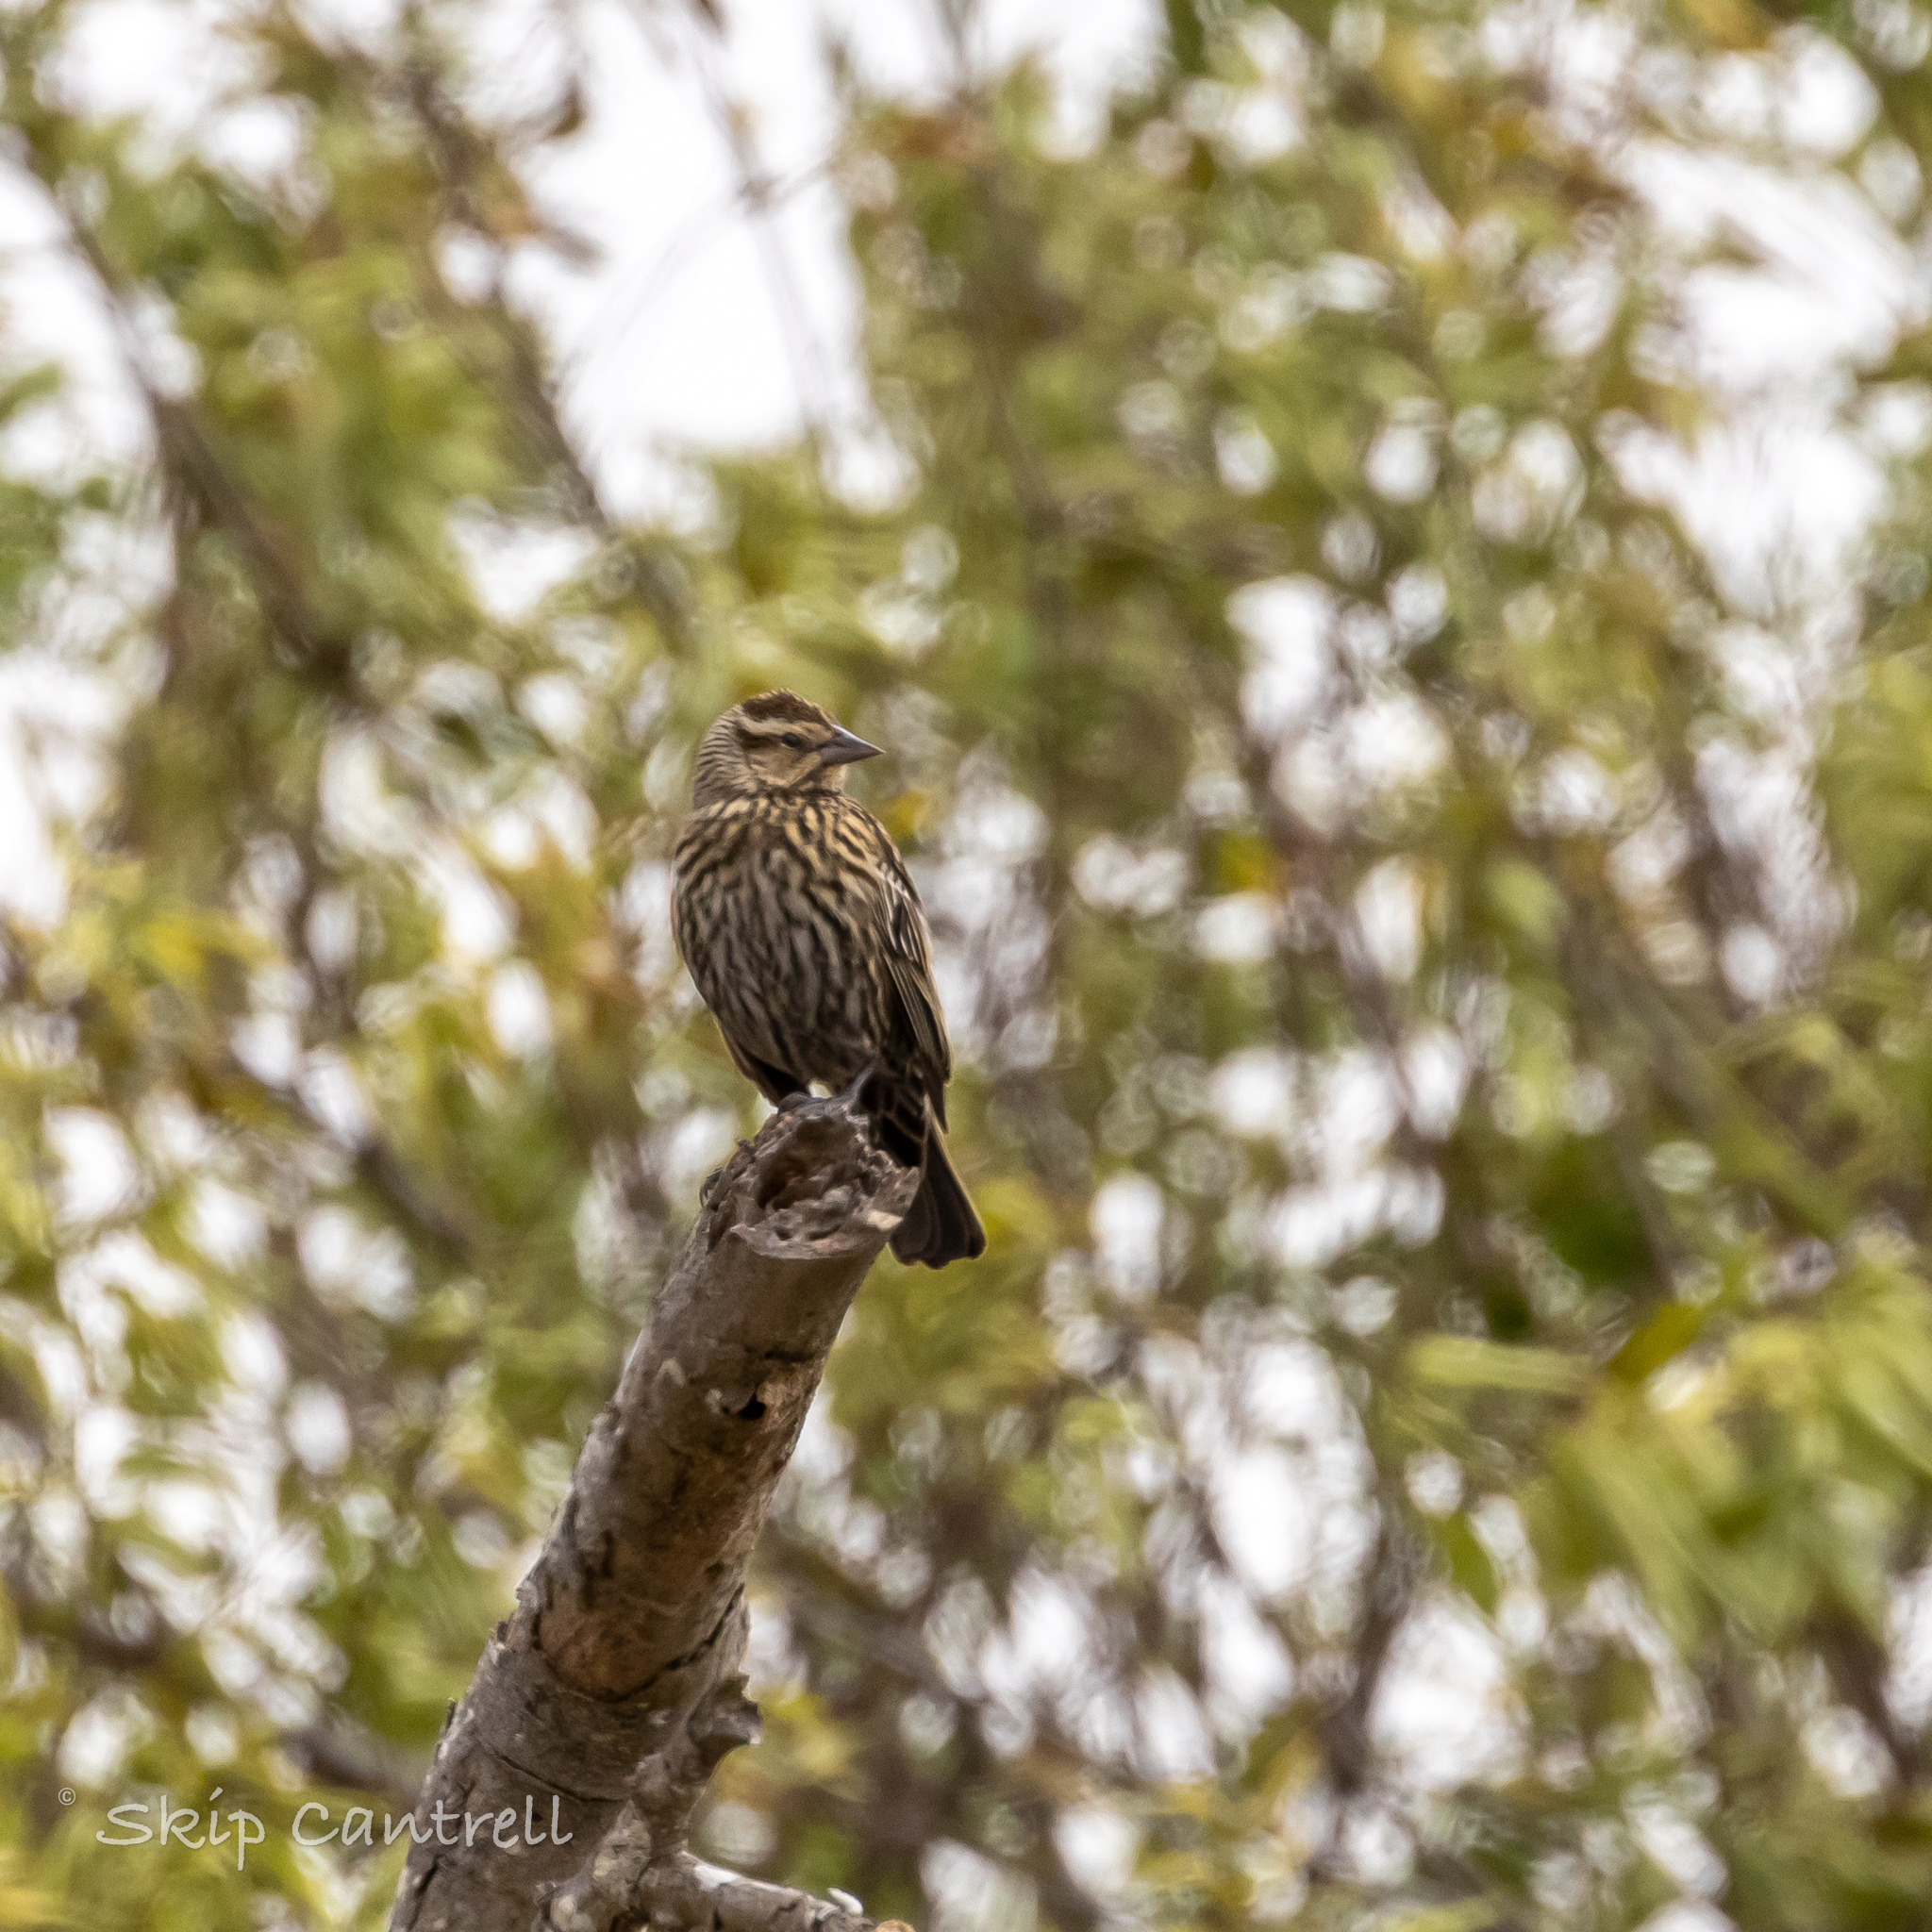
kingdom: Animalia
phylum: Chordata
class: Aves
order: Passeriformes
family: Icteridae
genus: Agelaius
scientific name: Agelaius phoeniceus
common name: Red-winged blackbird
